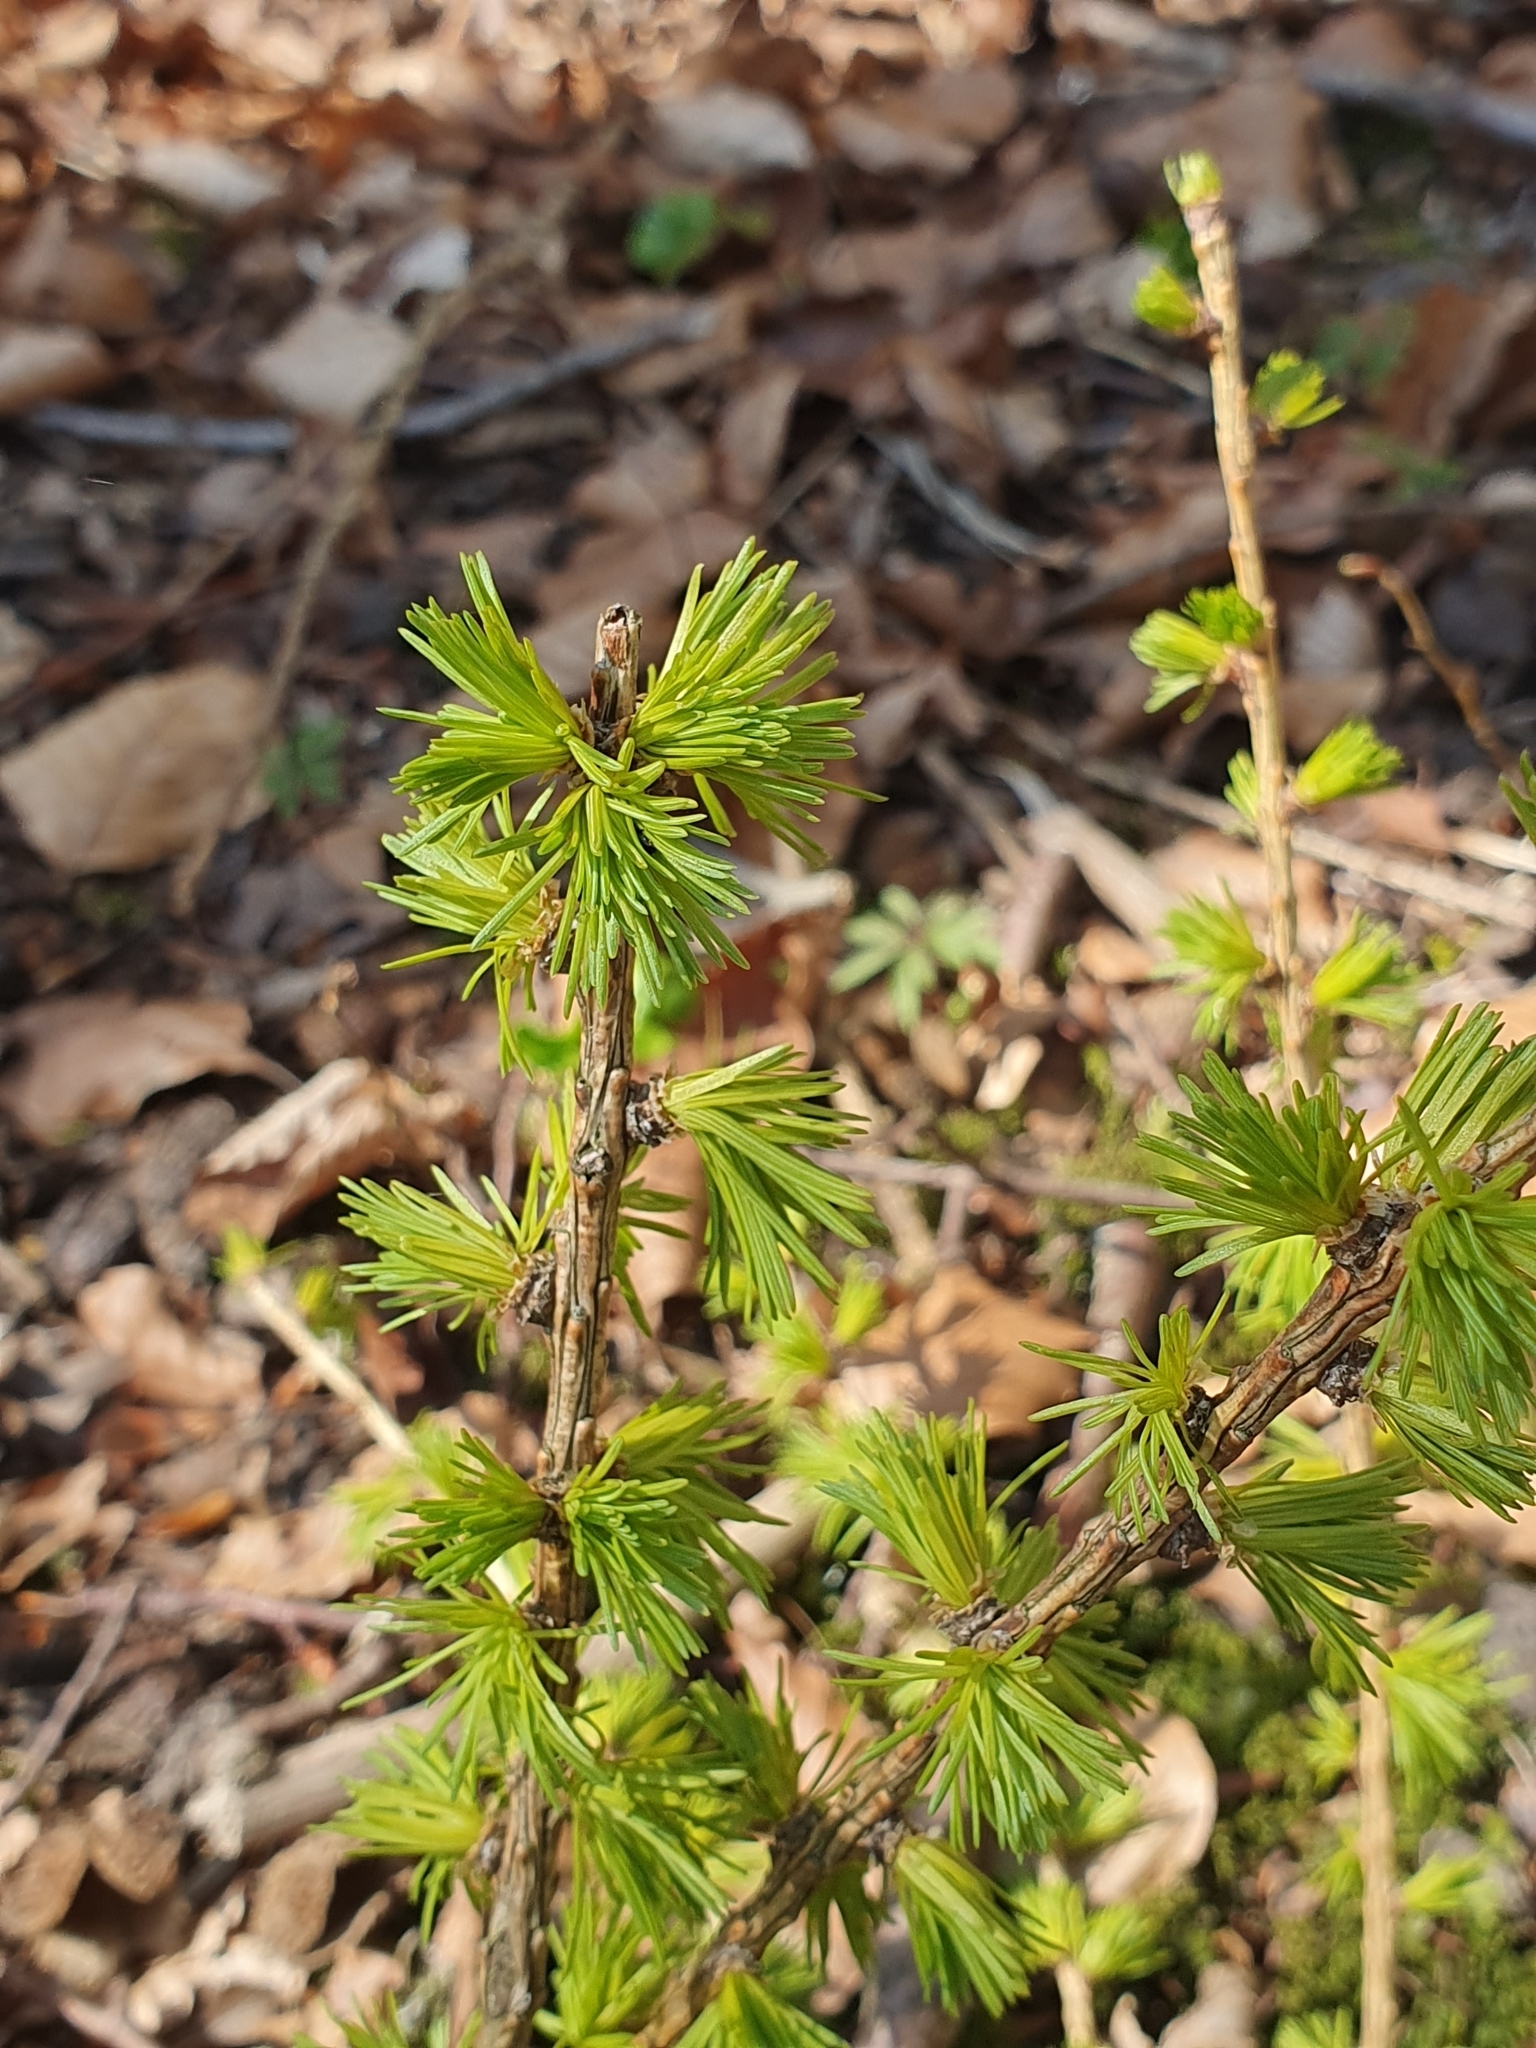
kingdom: Plantae
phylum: Tracheophyta
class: Pinopsida
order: Pinales
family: Pinaceae
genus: Larix
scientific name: Larix decidua
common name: European larch
